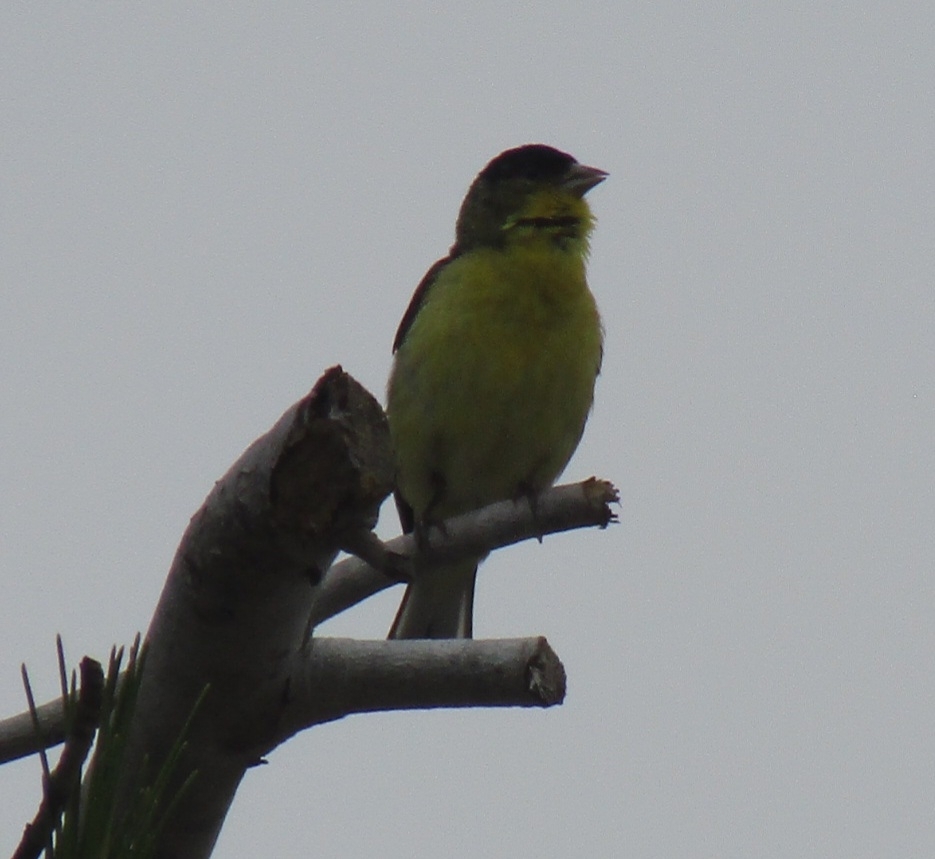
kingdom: Animalia
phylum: Chordata
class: Aves
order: Passeriformes
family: Fringillidae
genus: Spinus
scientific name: Spinus psaltria
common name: Lesser goldfinch
